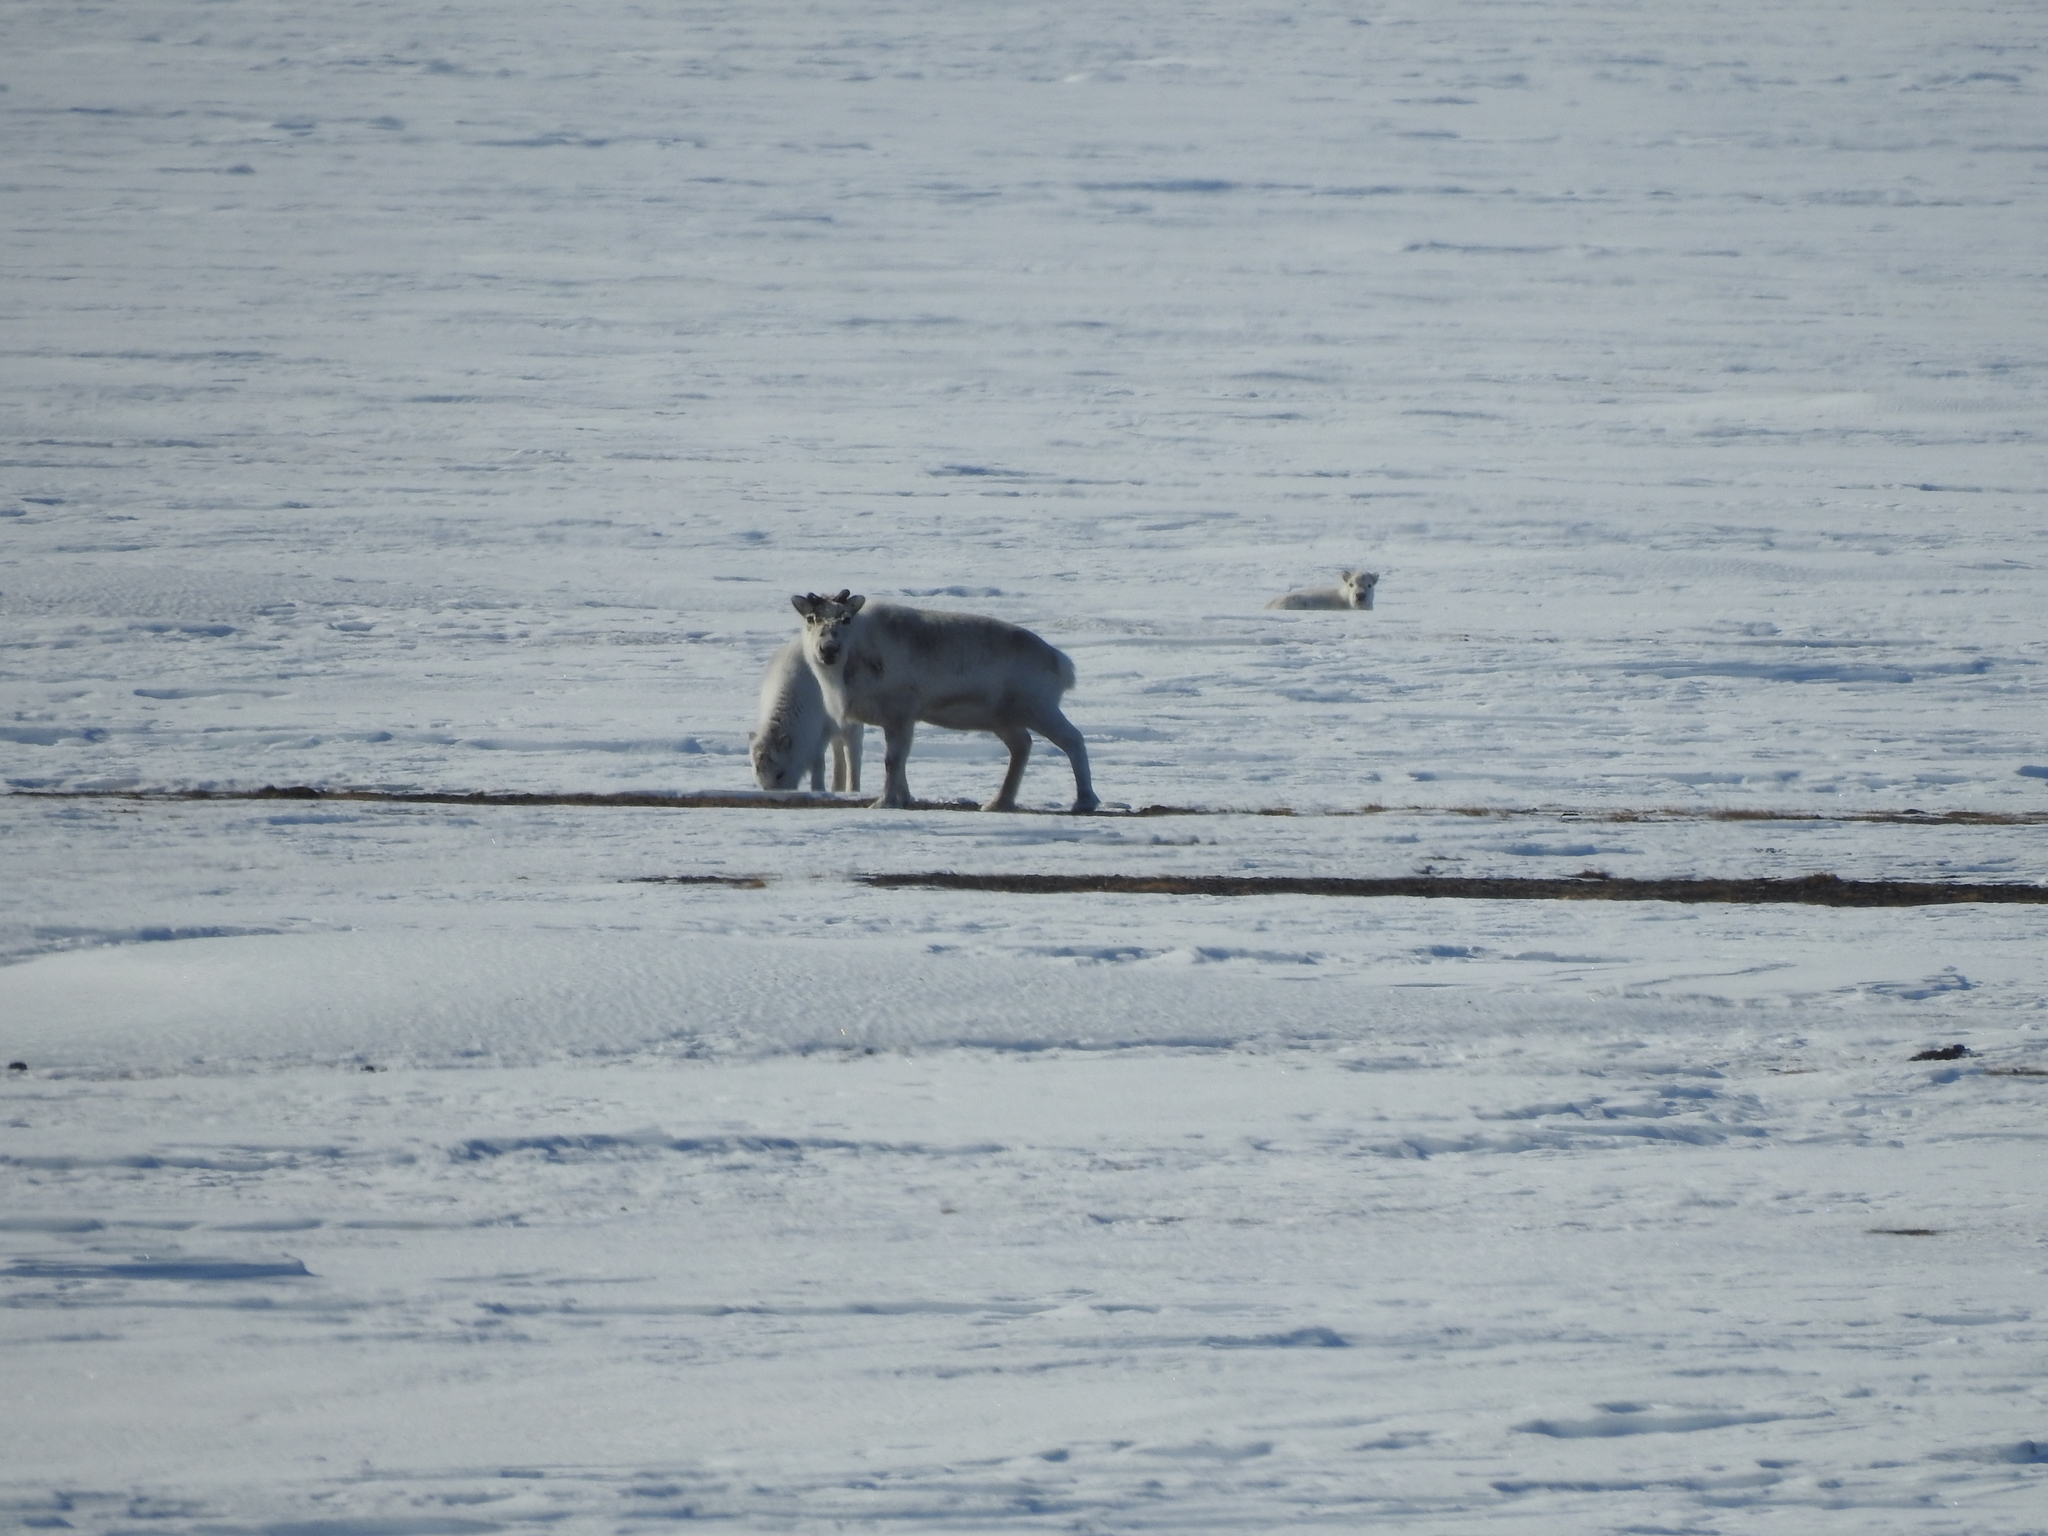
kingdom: Animalia
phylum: Chordata
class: Mammalia
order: Artiodactyla
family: Cervidae
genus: Rangifer
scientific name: Rangifer tarandus
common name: Reindeer
